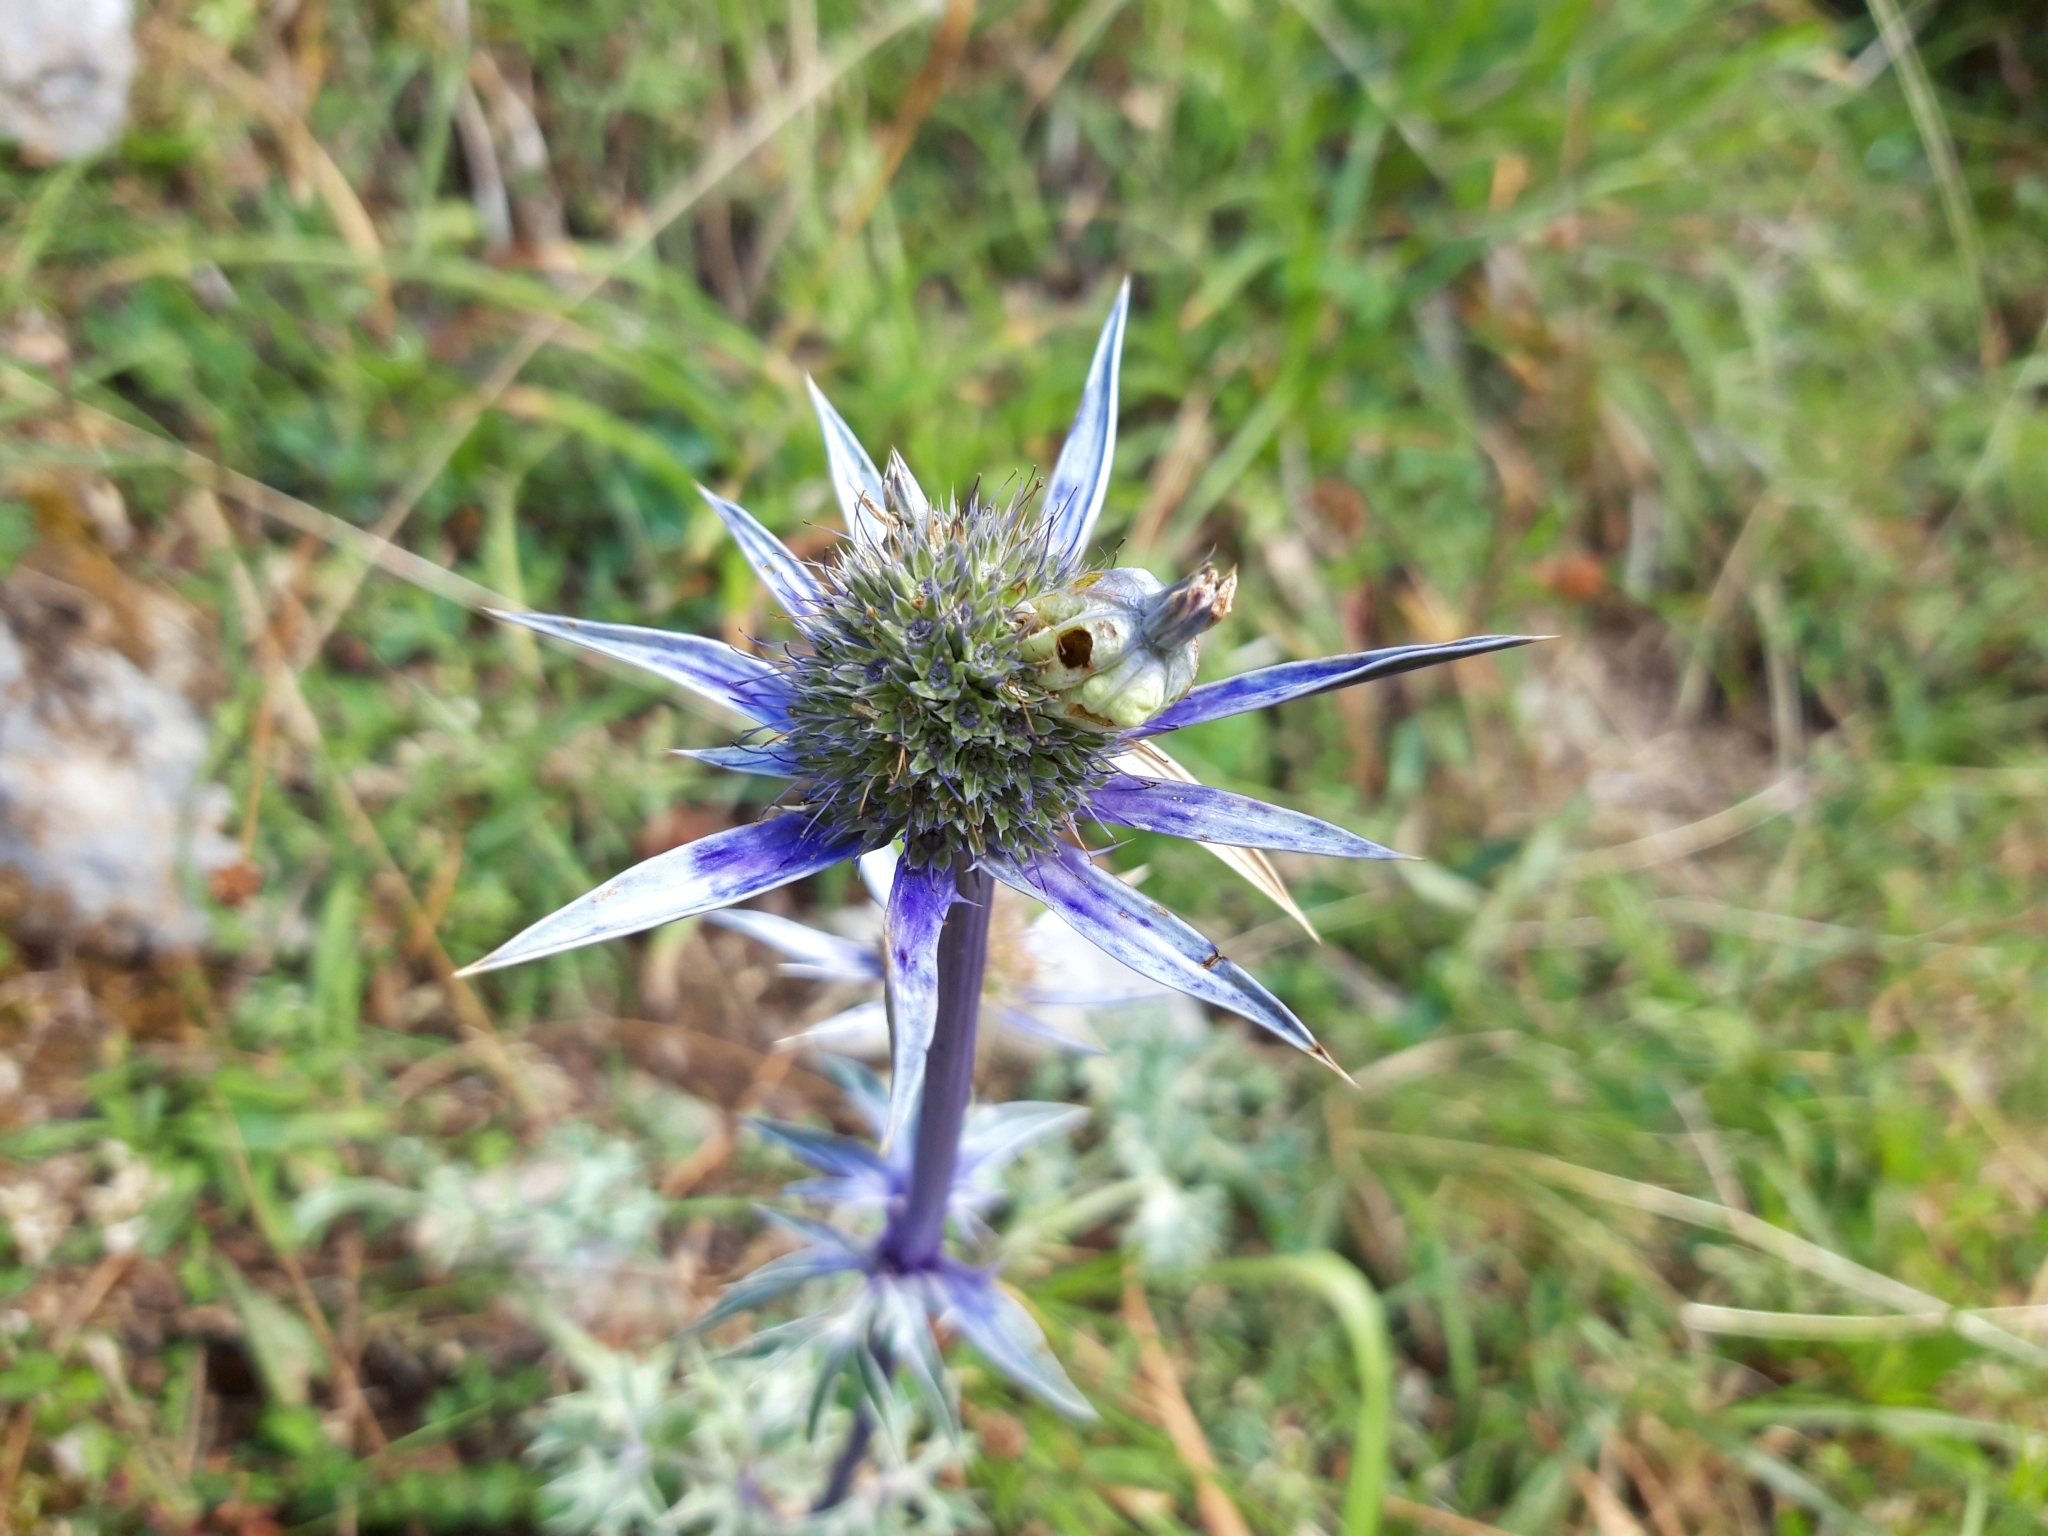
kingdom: Plantae
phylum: Tracheophyta
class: Magnoliopsida
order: Apiales
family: Apiaceae
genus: Eryngium
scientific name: Eryngium bourgatii
